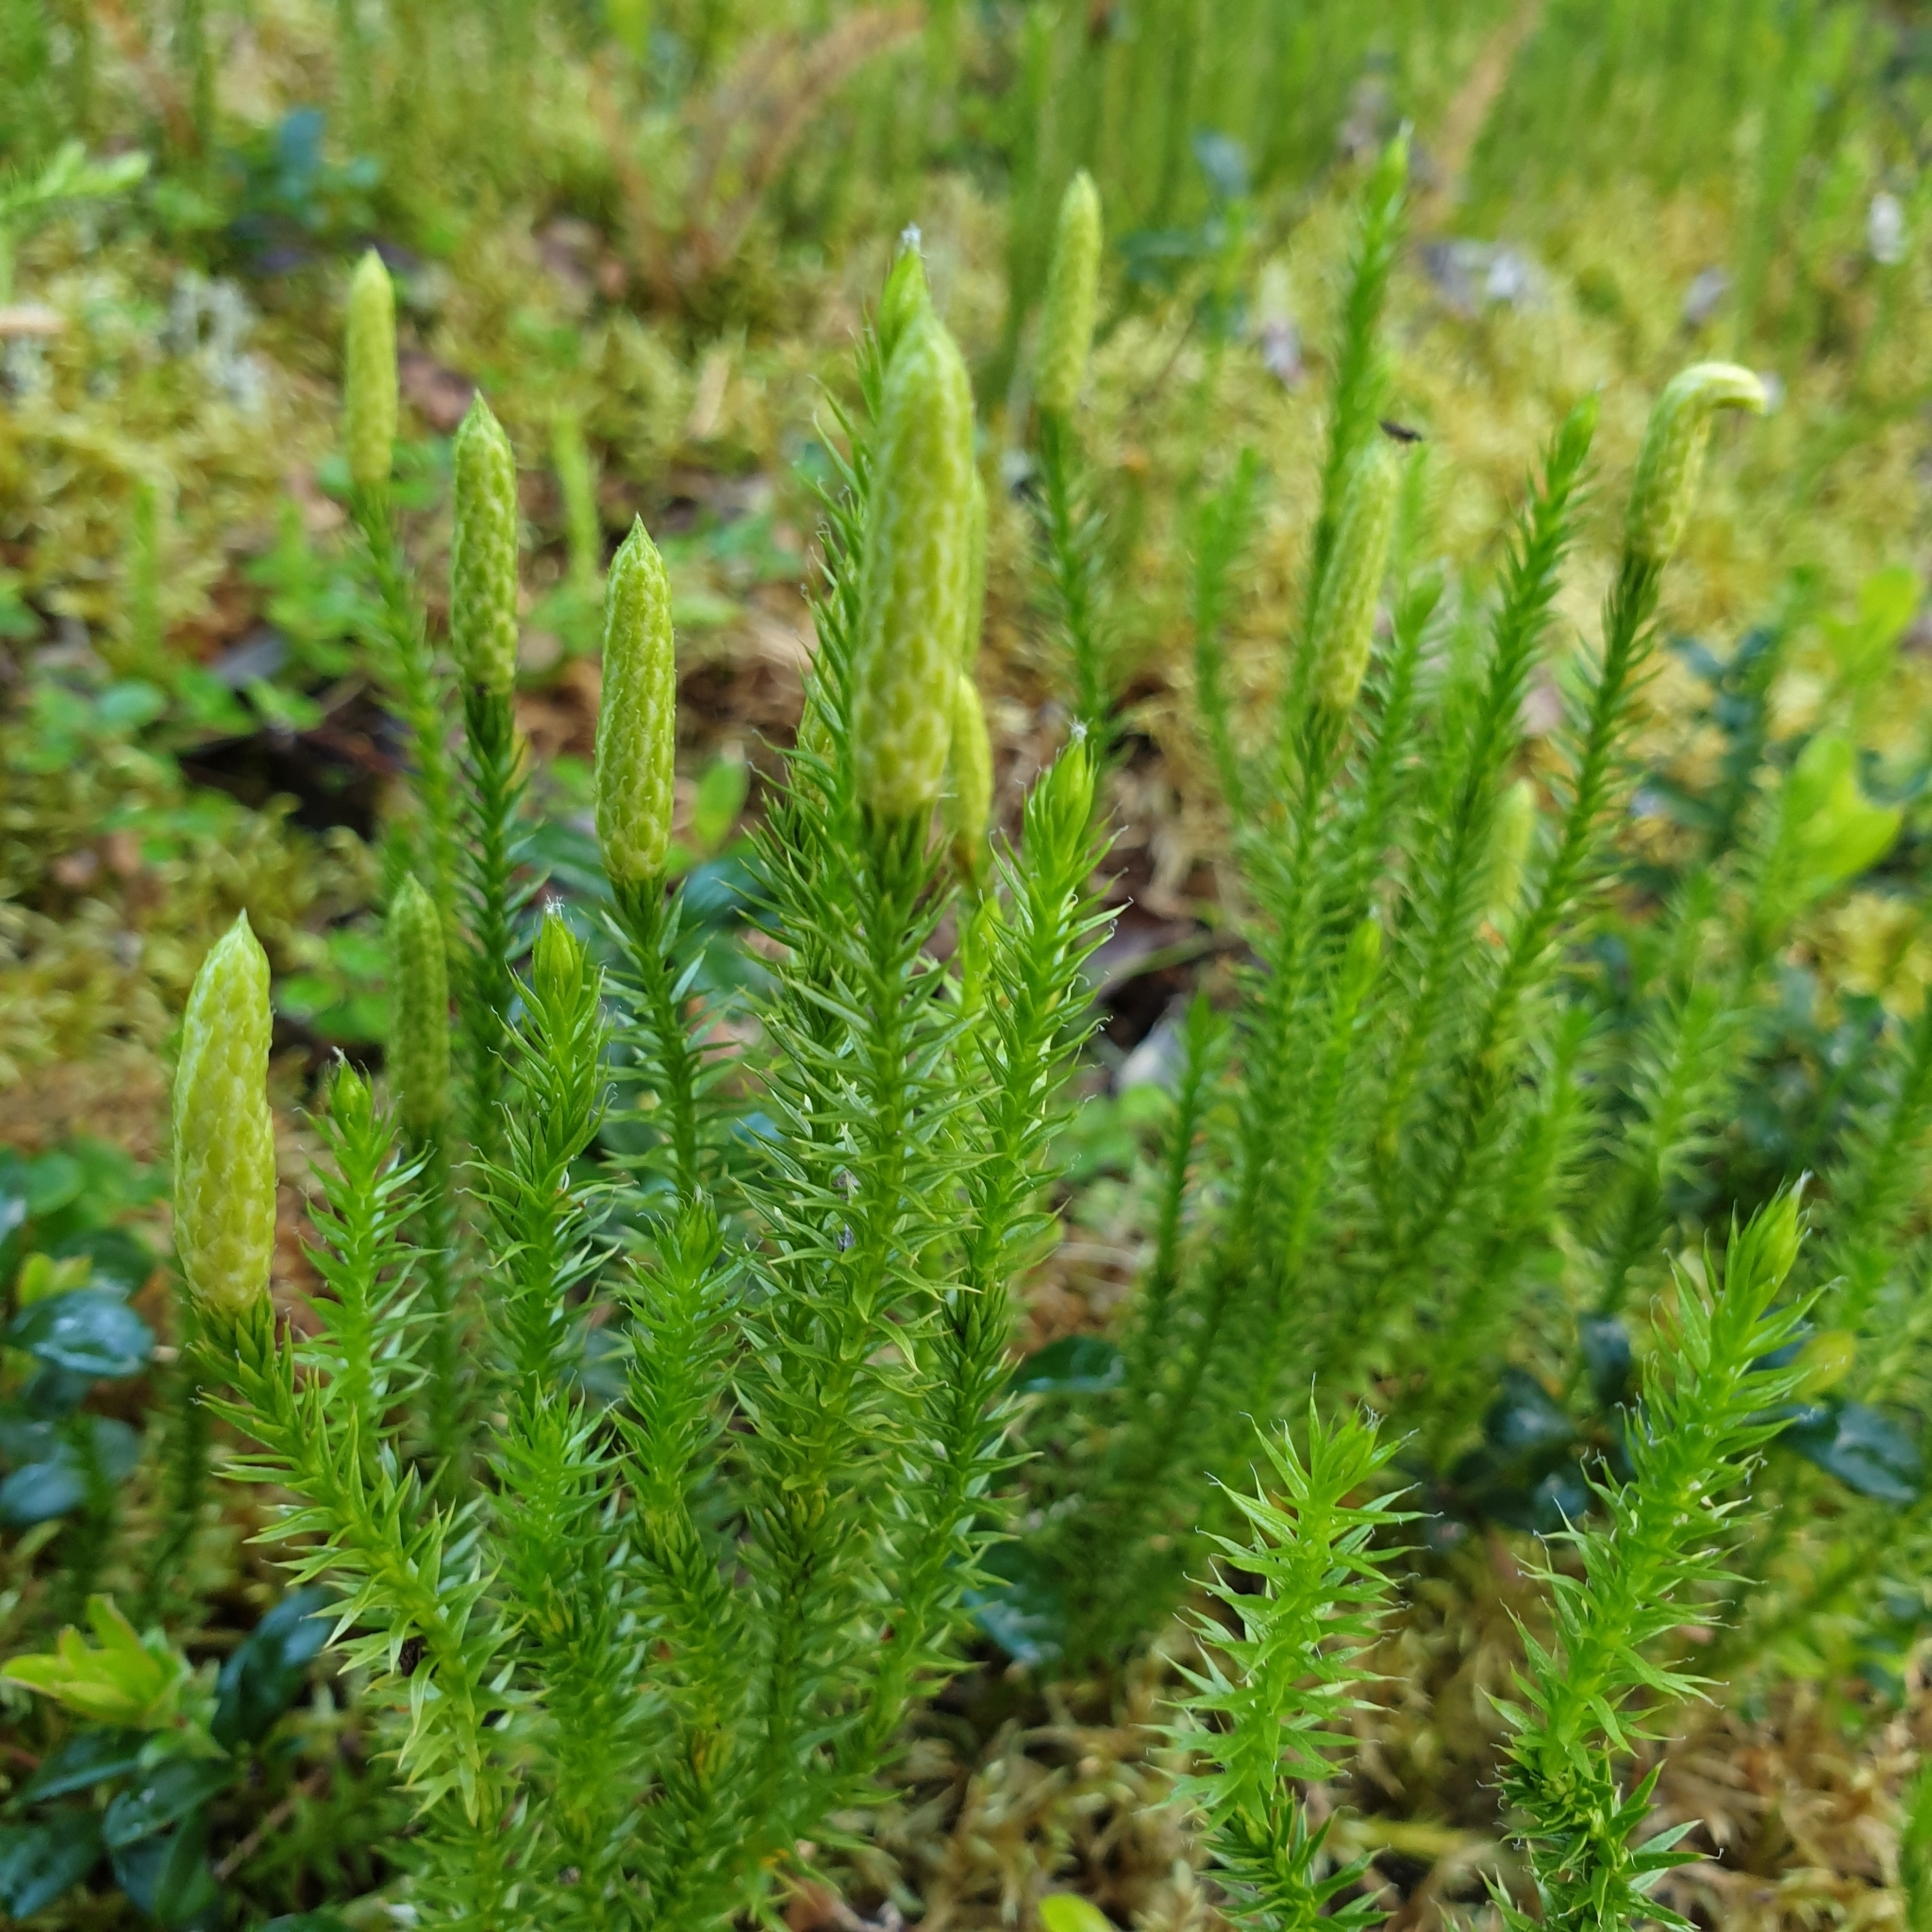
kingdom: Plantae
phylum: Tracheophyta
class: Lycopodiopsida
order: Lycopodiales
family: Lycopodiaceae
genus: Spinulum
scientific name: Spinulum annotinum
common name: Interrupted club-moss
